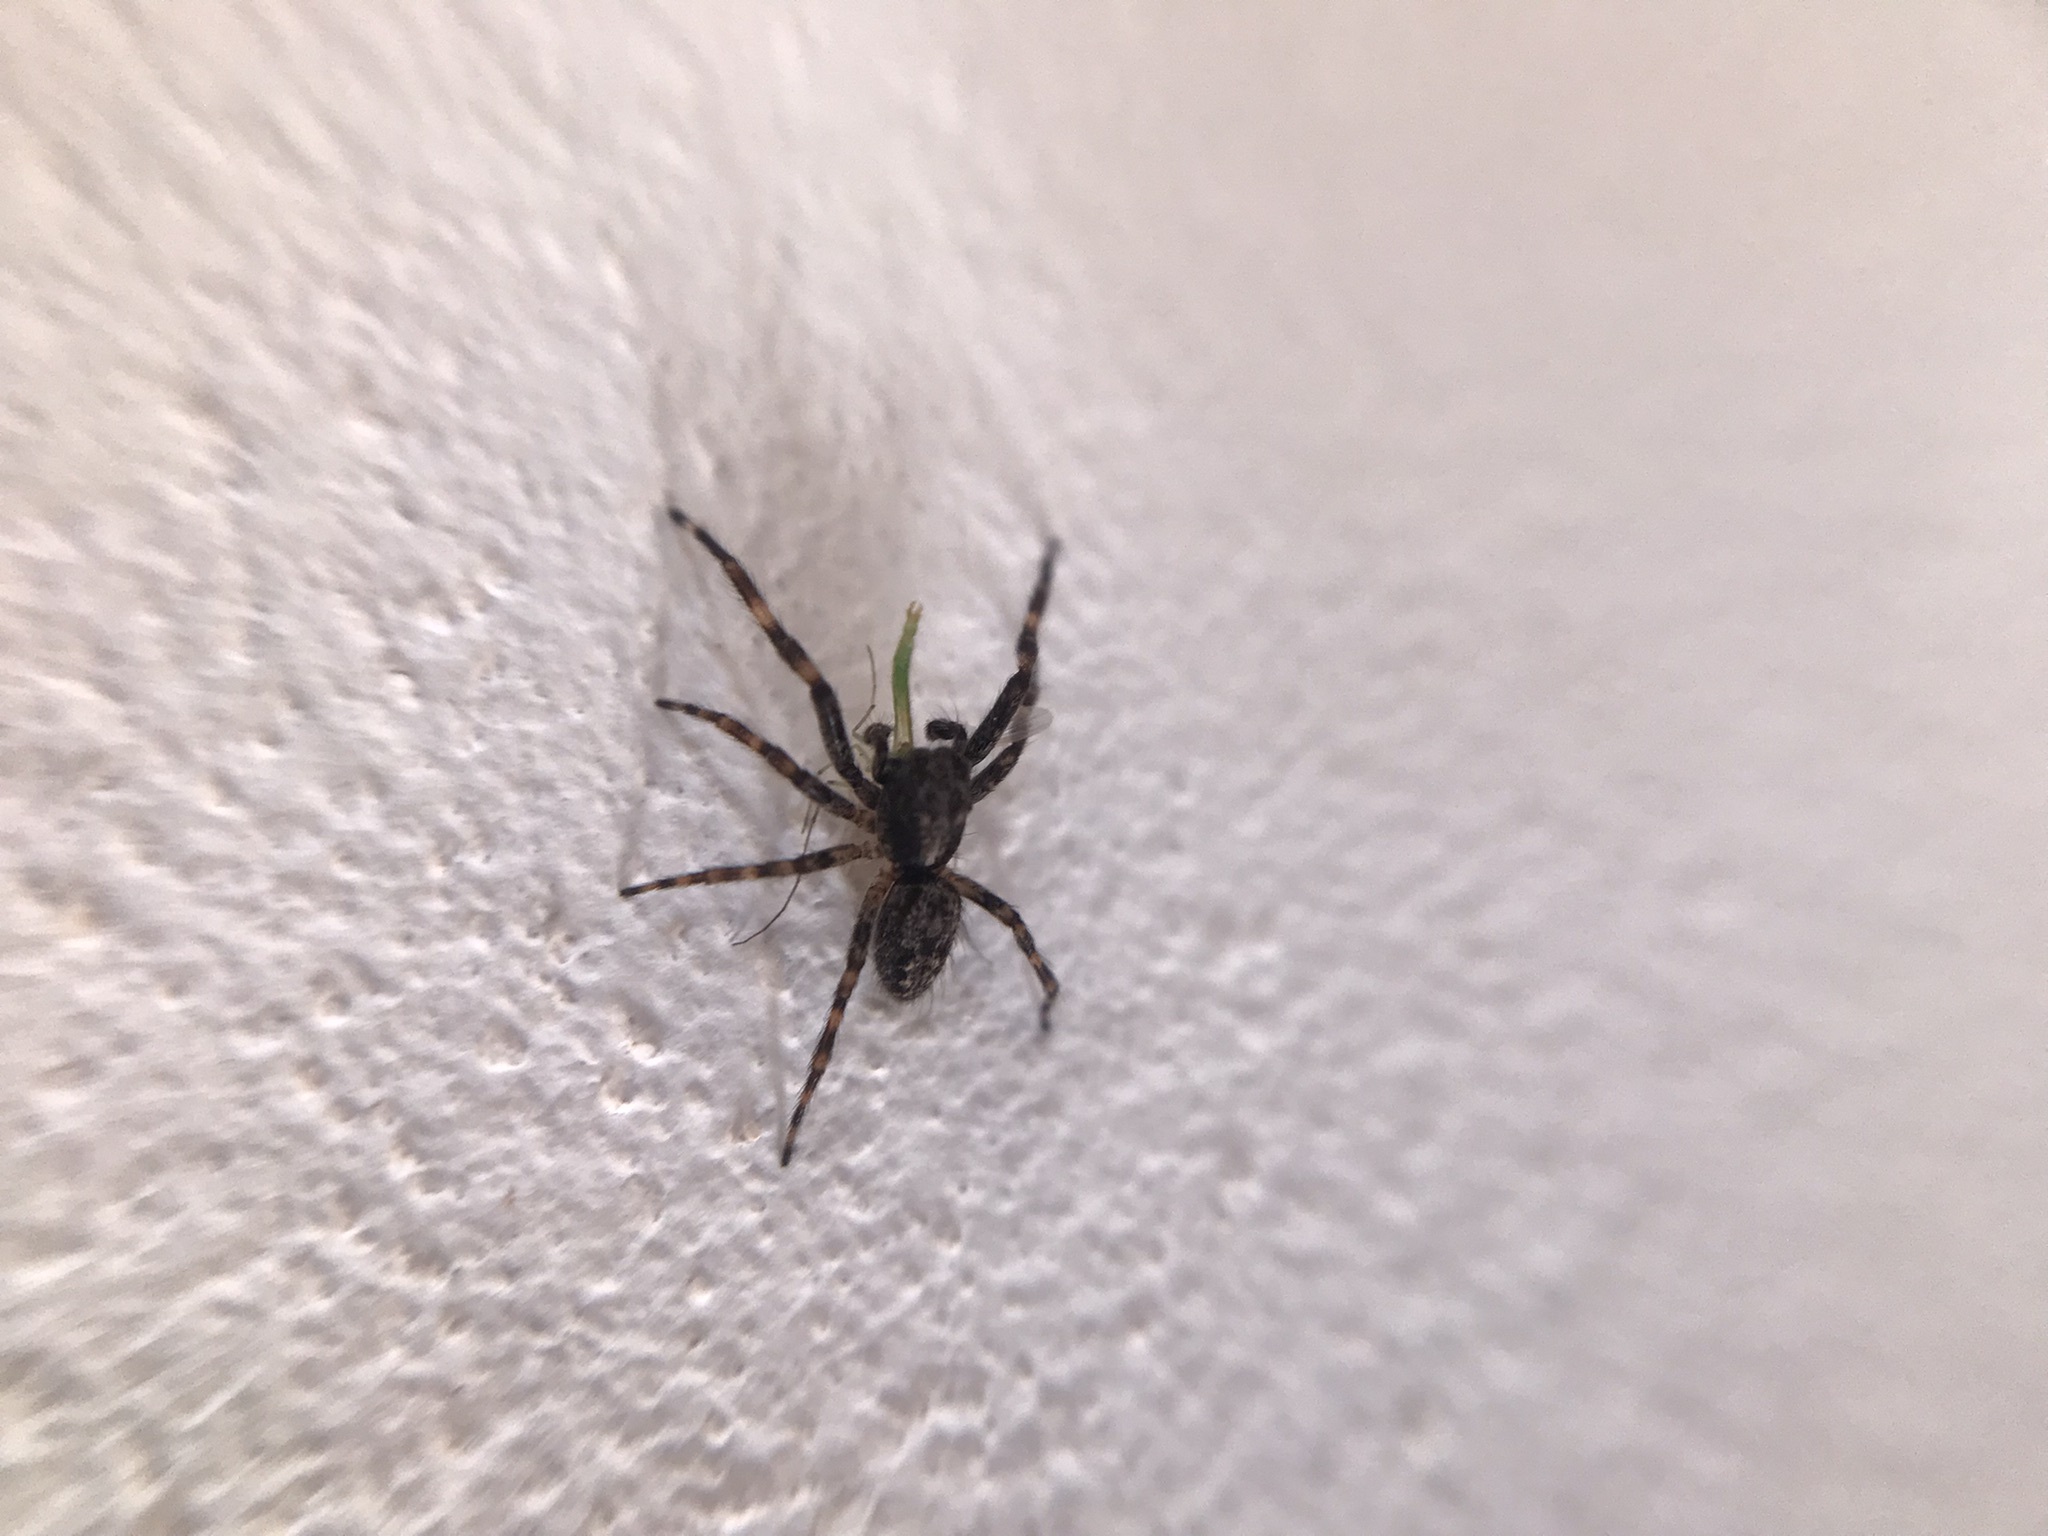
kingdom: Animalia
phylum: Arthropoda
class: Arachnida
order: Araneae
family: Salticidae
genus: Titanattus
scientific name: Titanattus andinus
